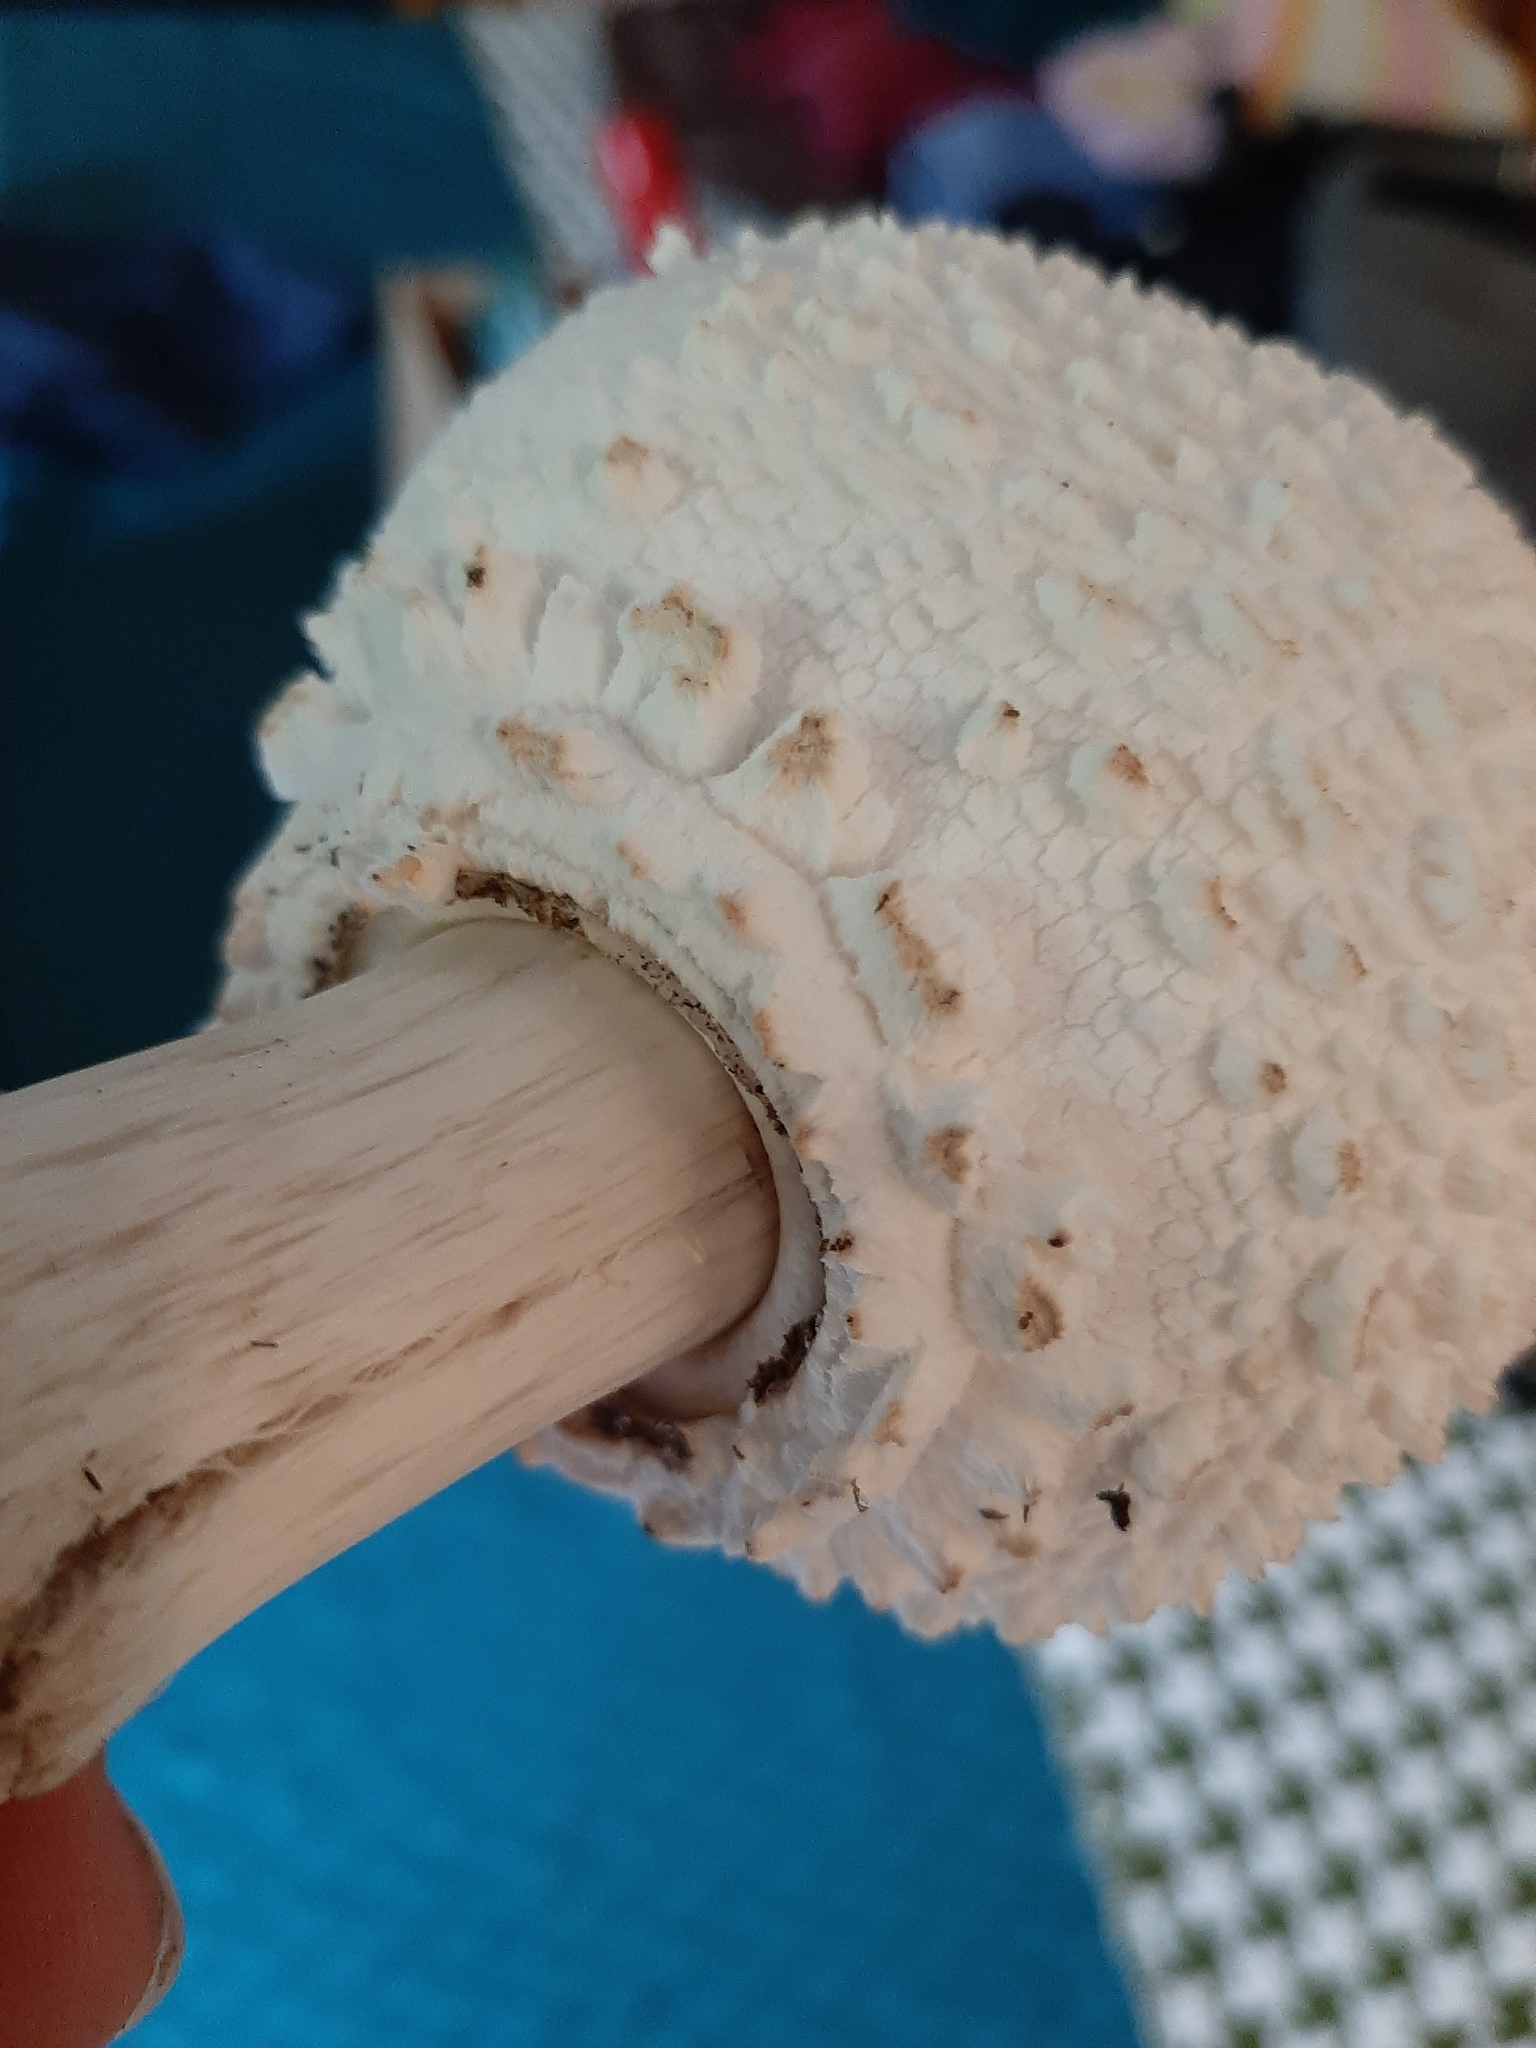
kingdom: Fungi
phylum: Basidiomycota
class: Agaricomycetes
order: Agaricales
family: Agaricaceae
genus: Chlorophyllum
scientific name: Chlorophyllum molybdites
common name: False parasol
